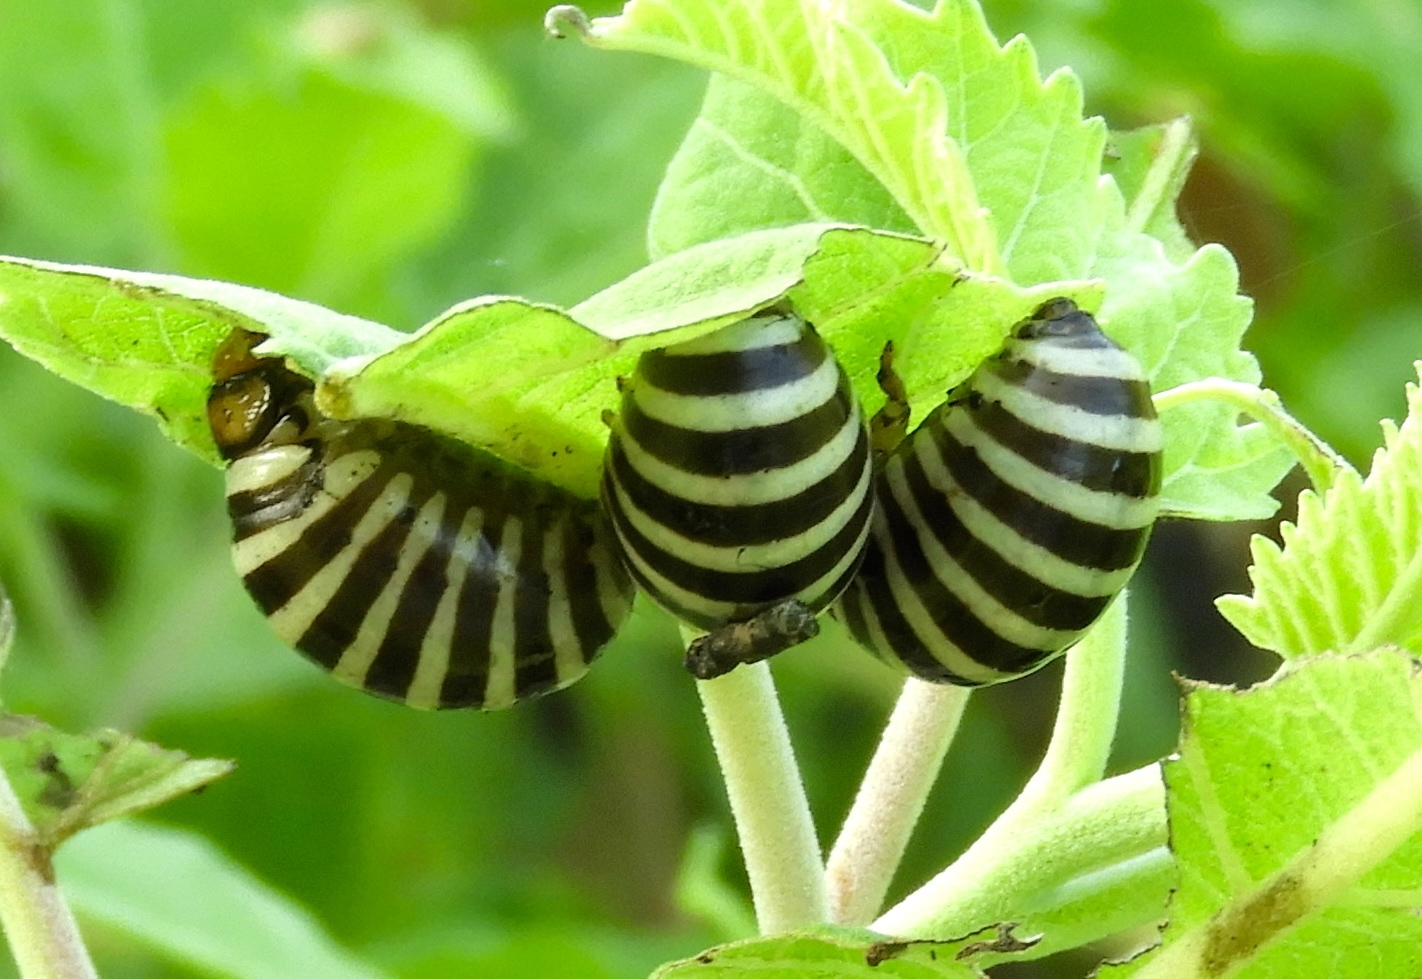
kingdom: Animalia
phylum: Arthropoda
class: Insecta
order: Coleoptera
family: Chrysomelidae
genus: Leptinotarsa
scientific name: Leptinotarsa behrensi
